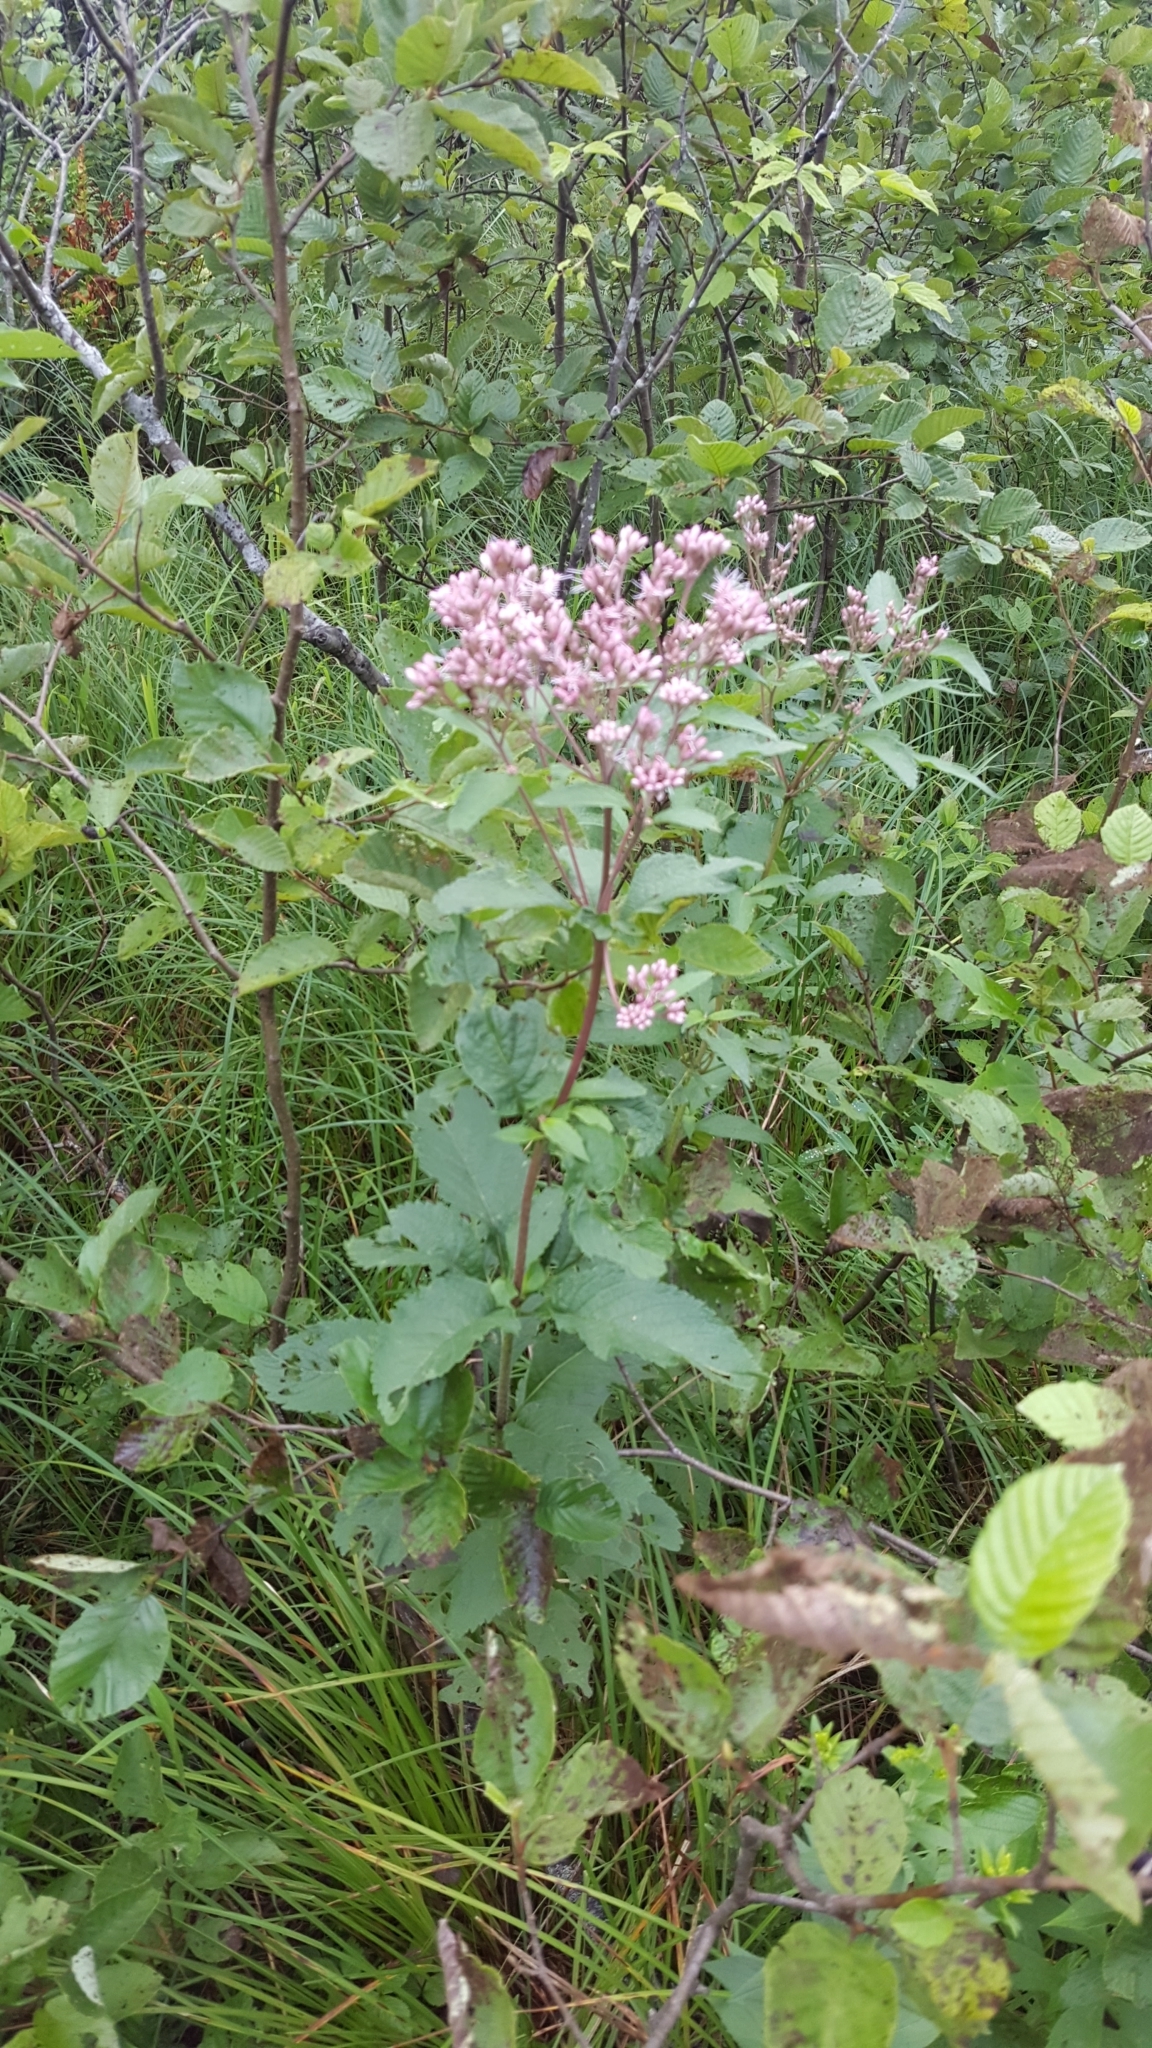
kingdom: Plantae
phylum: Tracheophyta
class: Magnoliopsida
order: Asterales
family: Asteraceae
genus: Eutrochium
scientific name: Eutrochium maculatum
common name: Spotted joe pye weed
